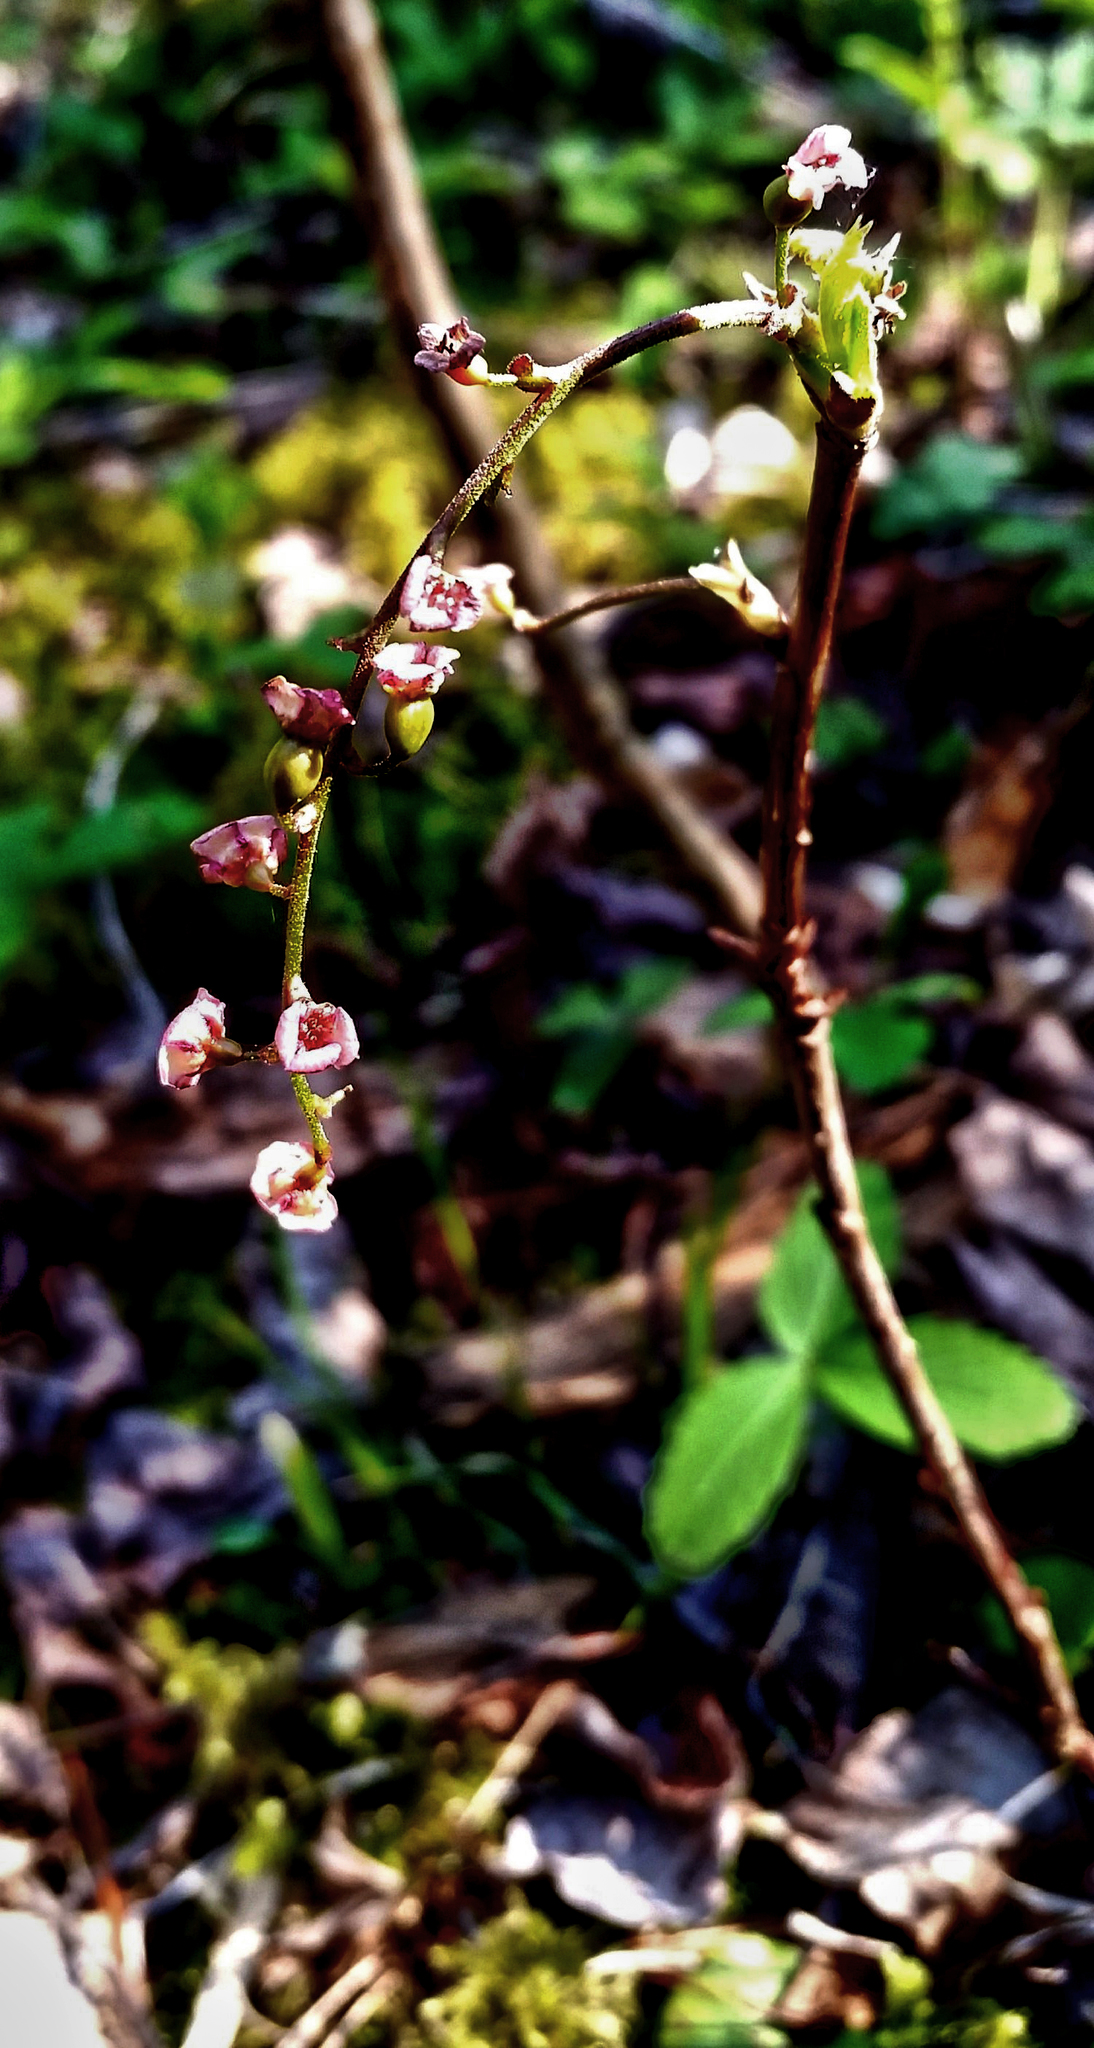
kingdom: Plantae
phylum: Tracheophyta
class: Magnoliopsida
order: Saxifragales
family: Grossulariaceae
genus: Ribes
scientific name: Ribes triste
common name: Swamp red currant
